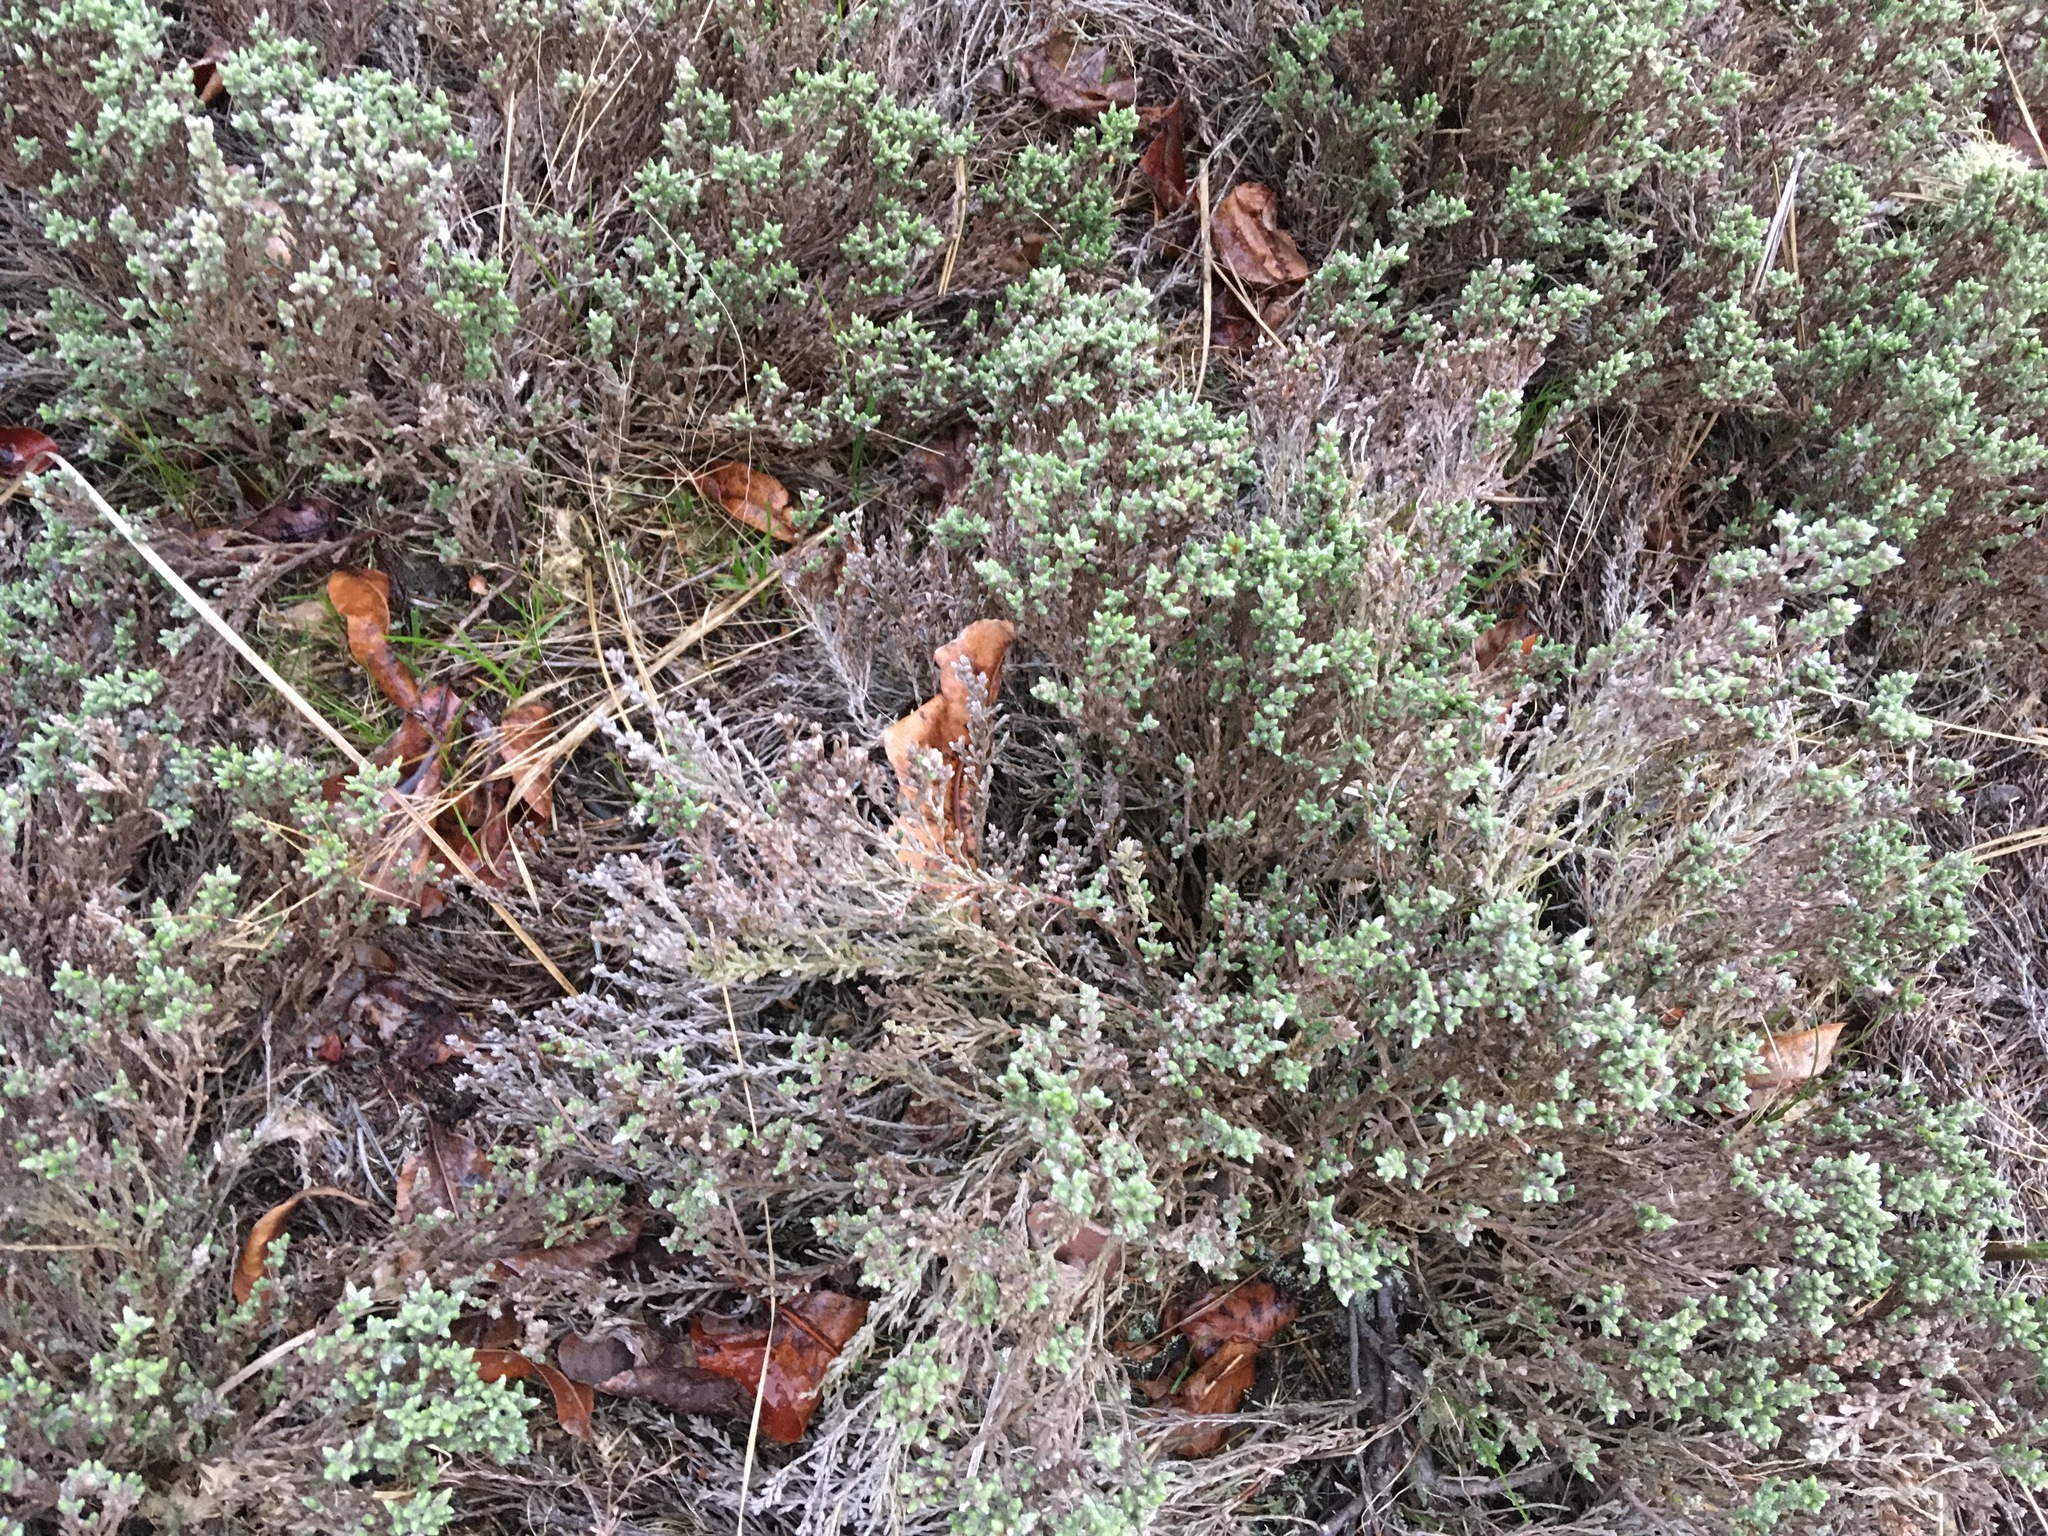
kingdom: Plantae
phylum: Tracheophyta
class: Magnoliopsida
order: Malvales
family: Cistaceae
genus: Hudsonia
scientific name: Hudsonia tomentosa
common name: Beach-heath
